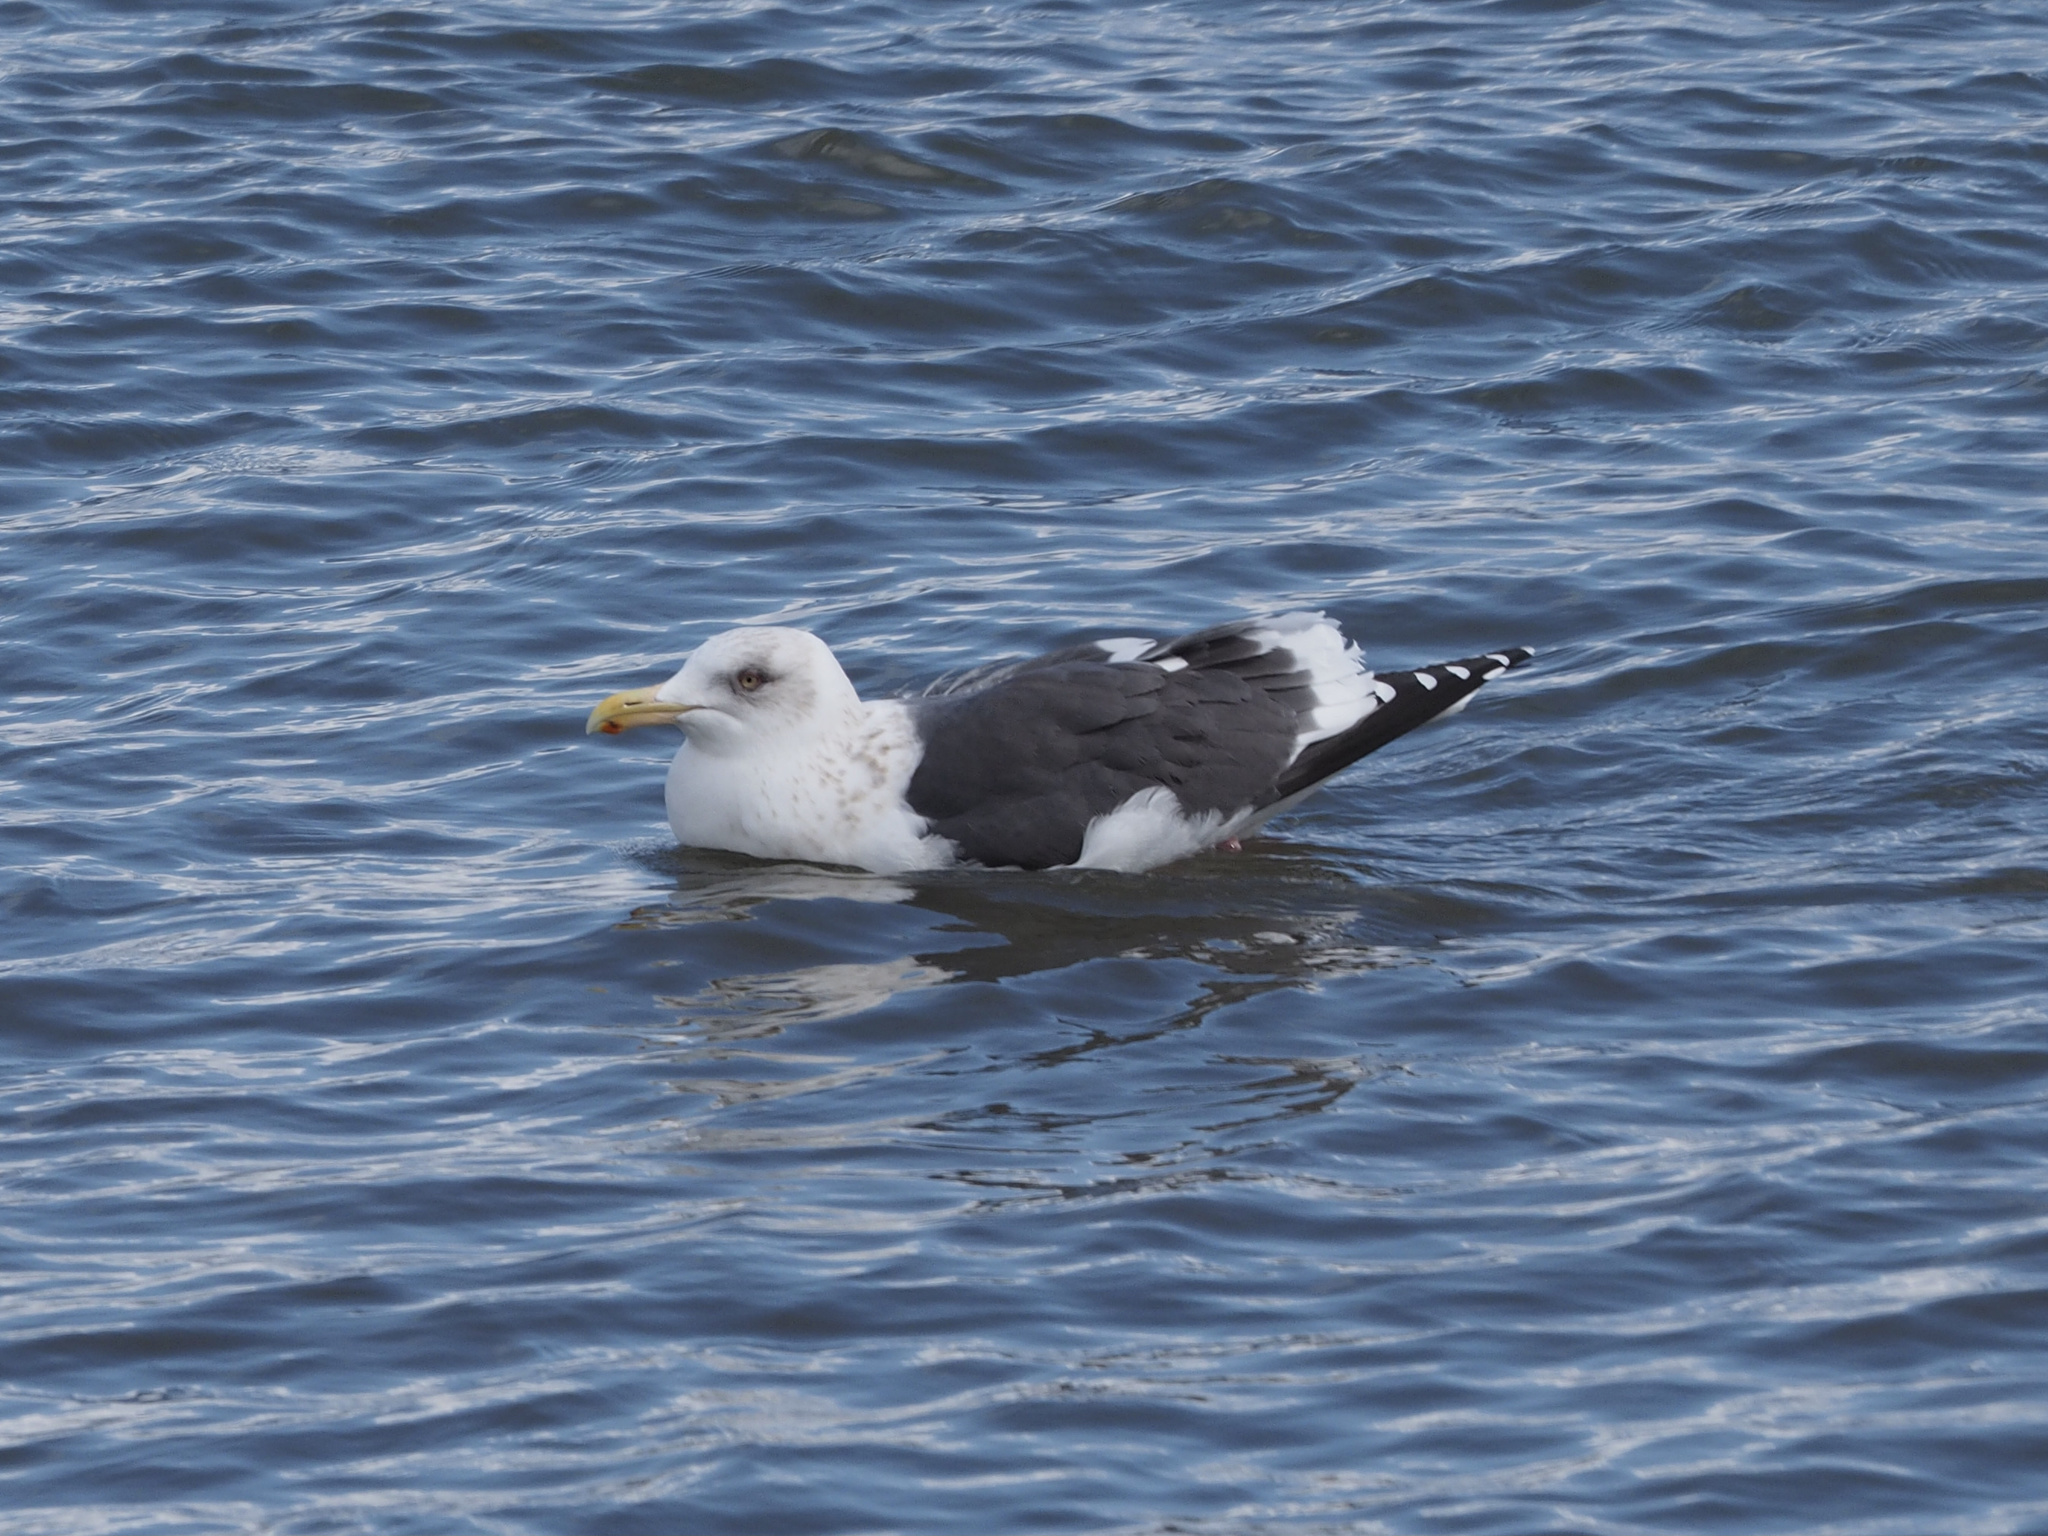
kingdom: Animalia
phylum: Chordata
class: Aves
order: Charadriiformes
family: Laridae
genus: Larus
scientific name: Larus schistisagus
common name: Slaty-backed gull
